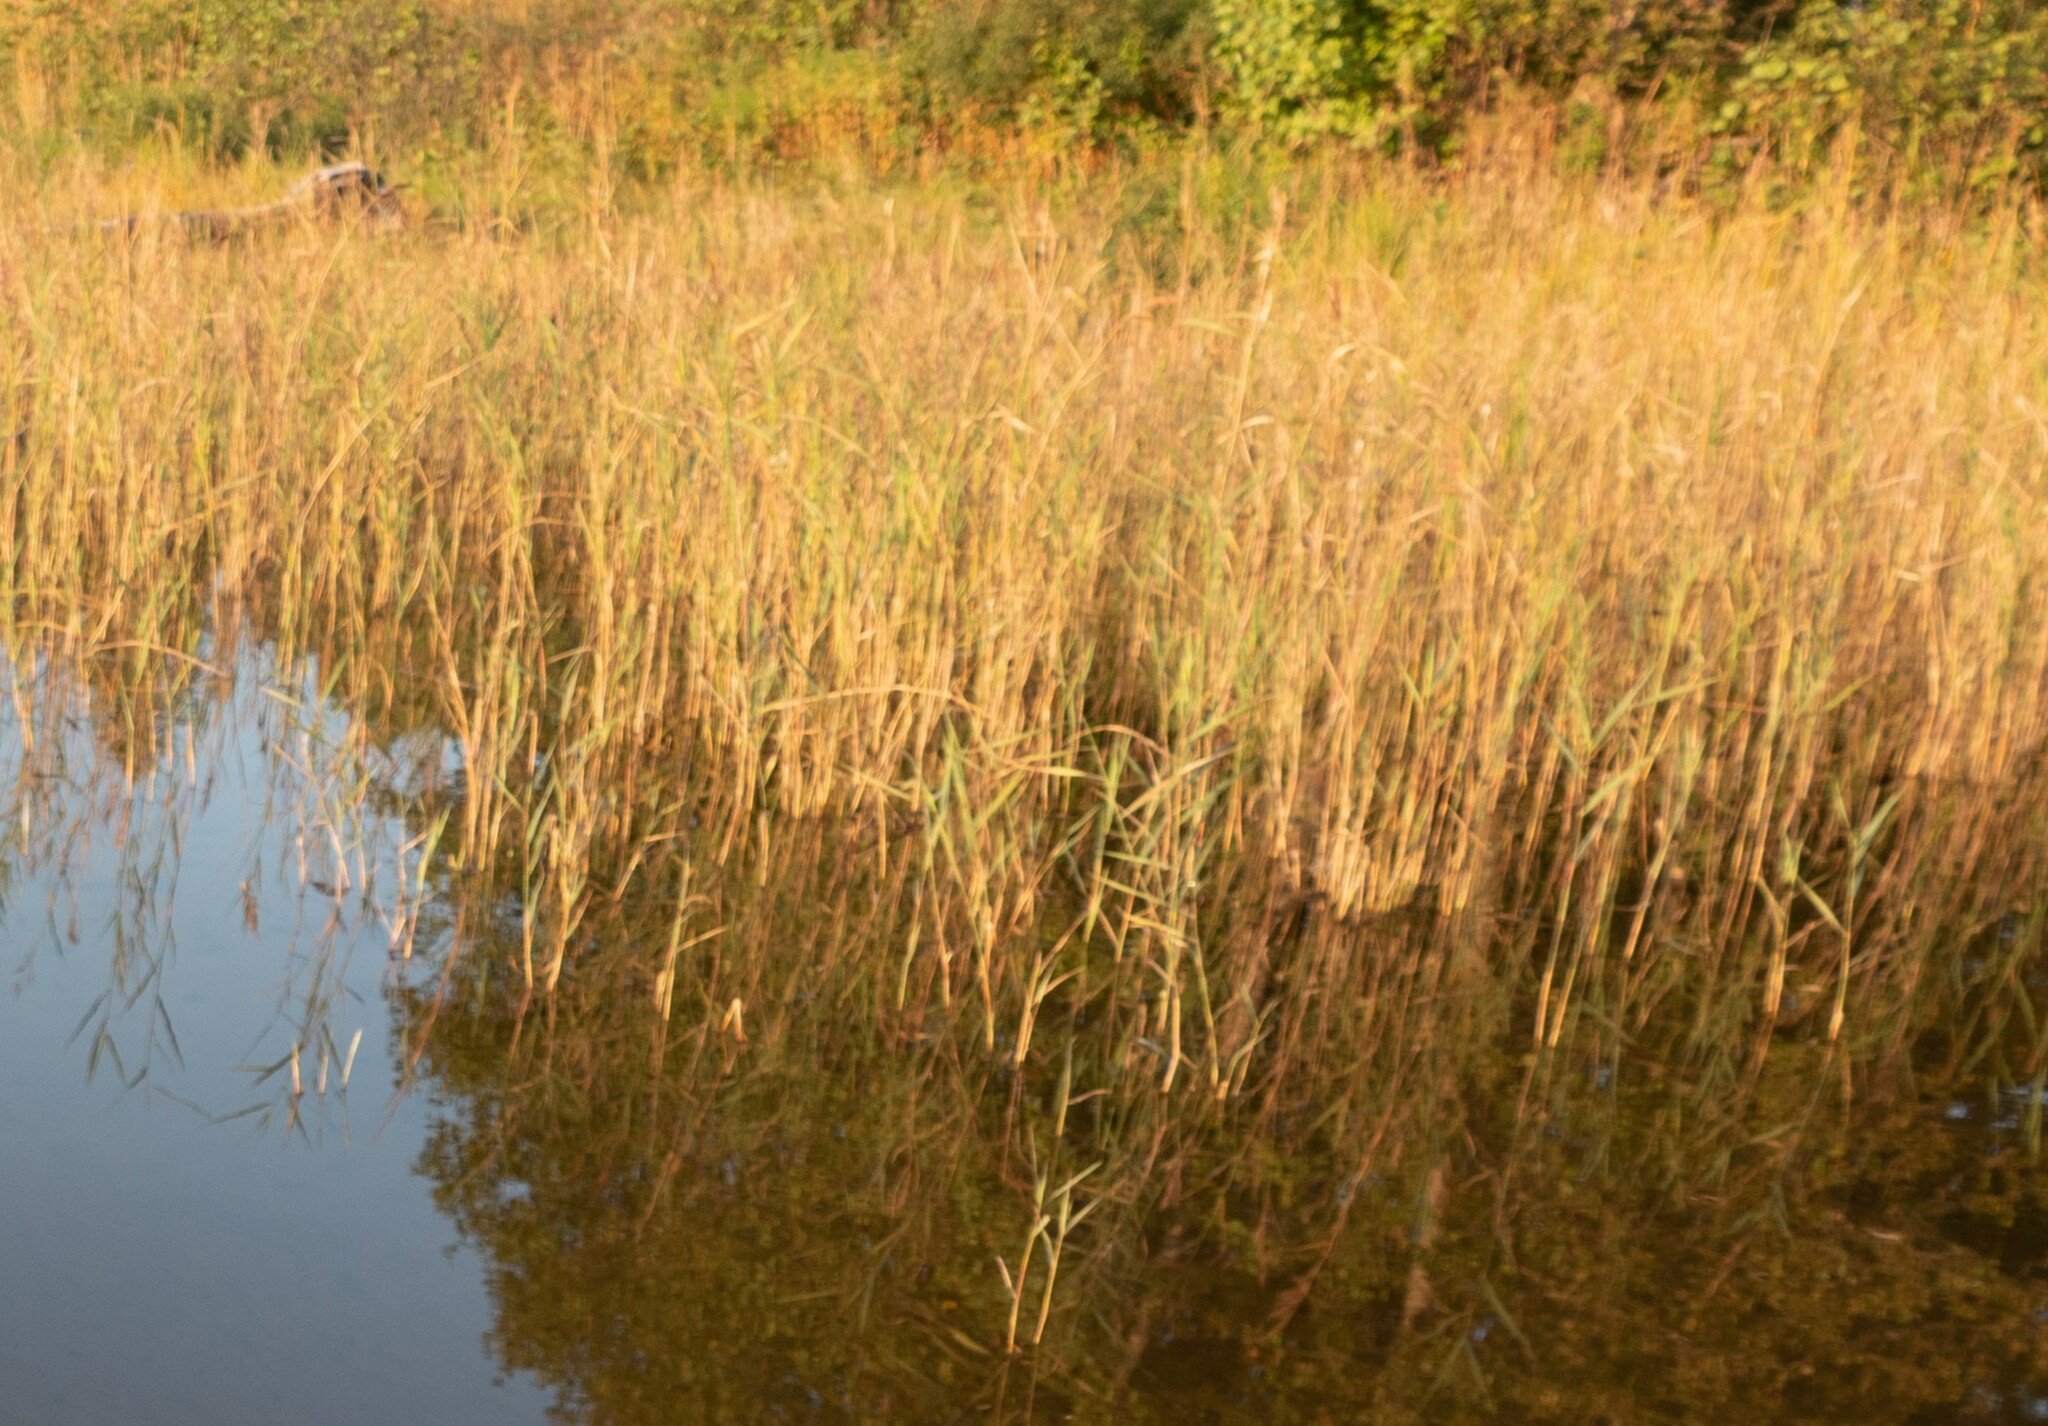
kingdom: Plantae
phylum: Tracheophyta
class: Liliopsida
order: Poales
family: Poaceae
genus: Phragmites
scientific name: Phragmites australis
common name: Common reed
